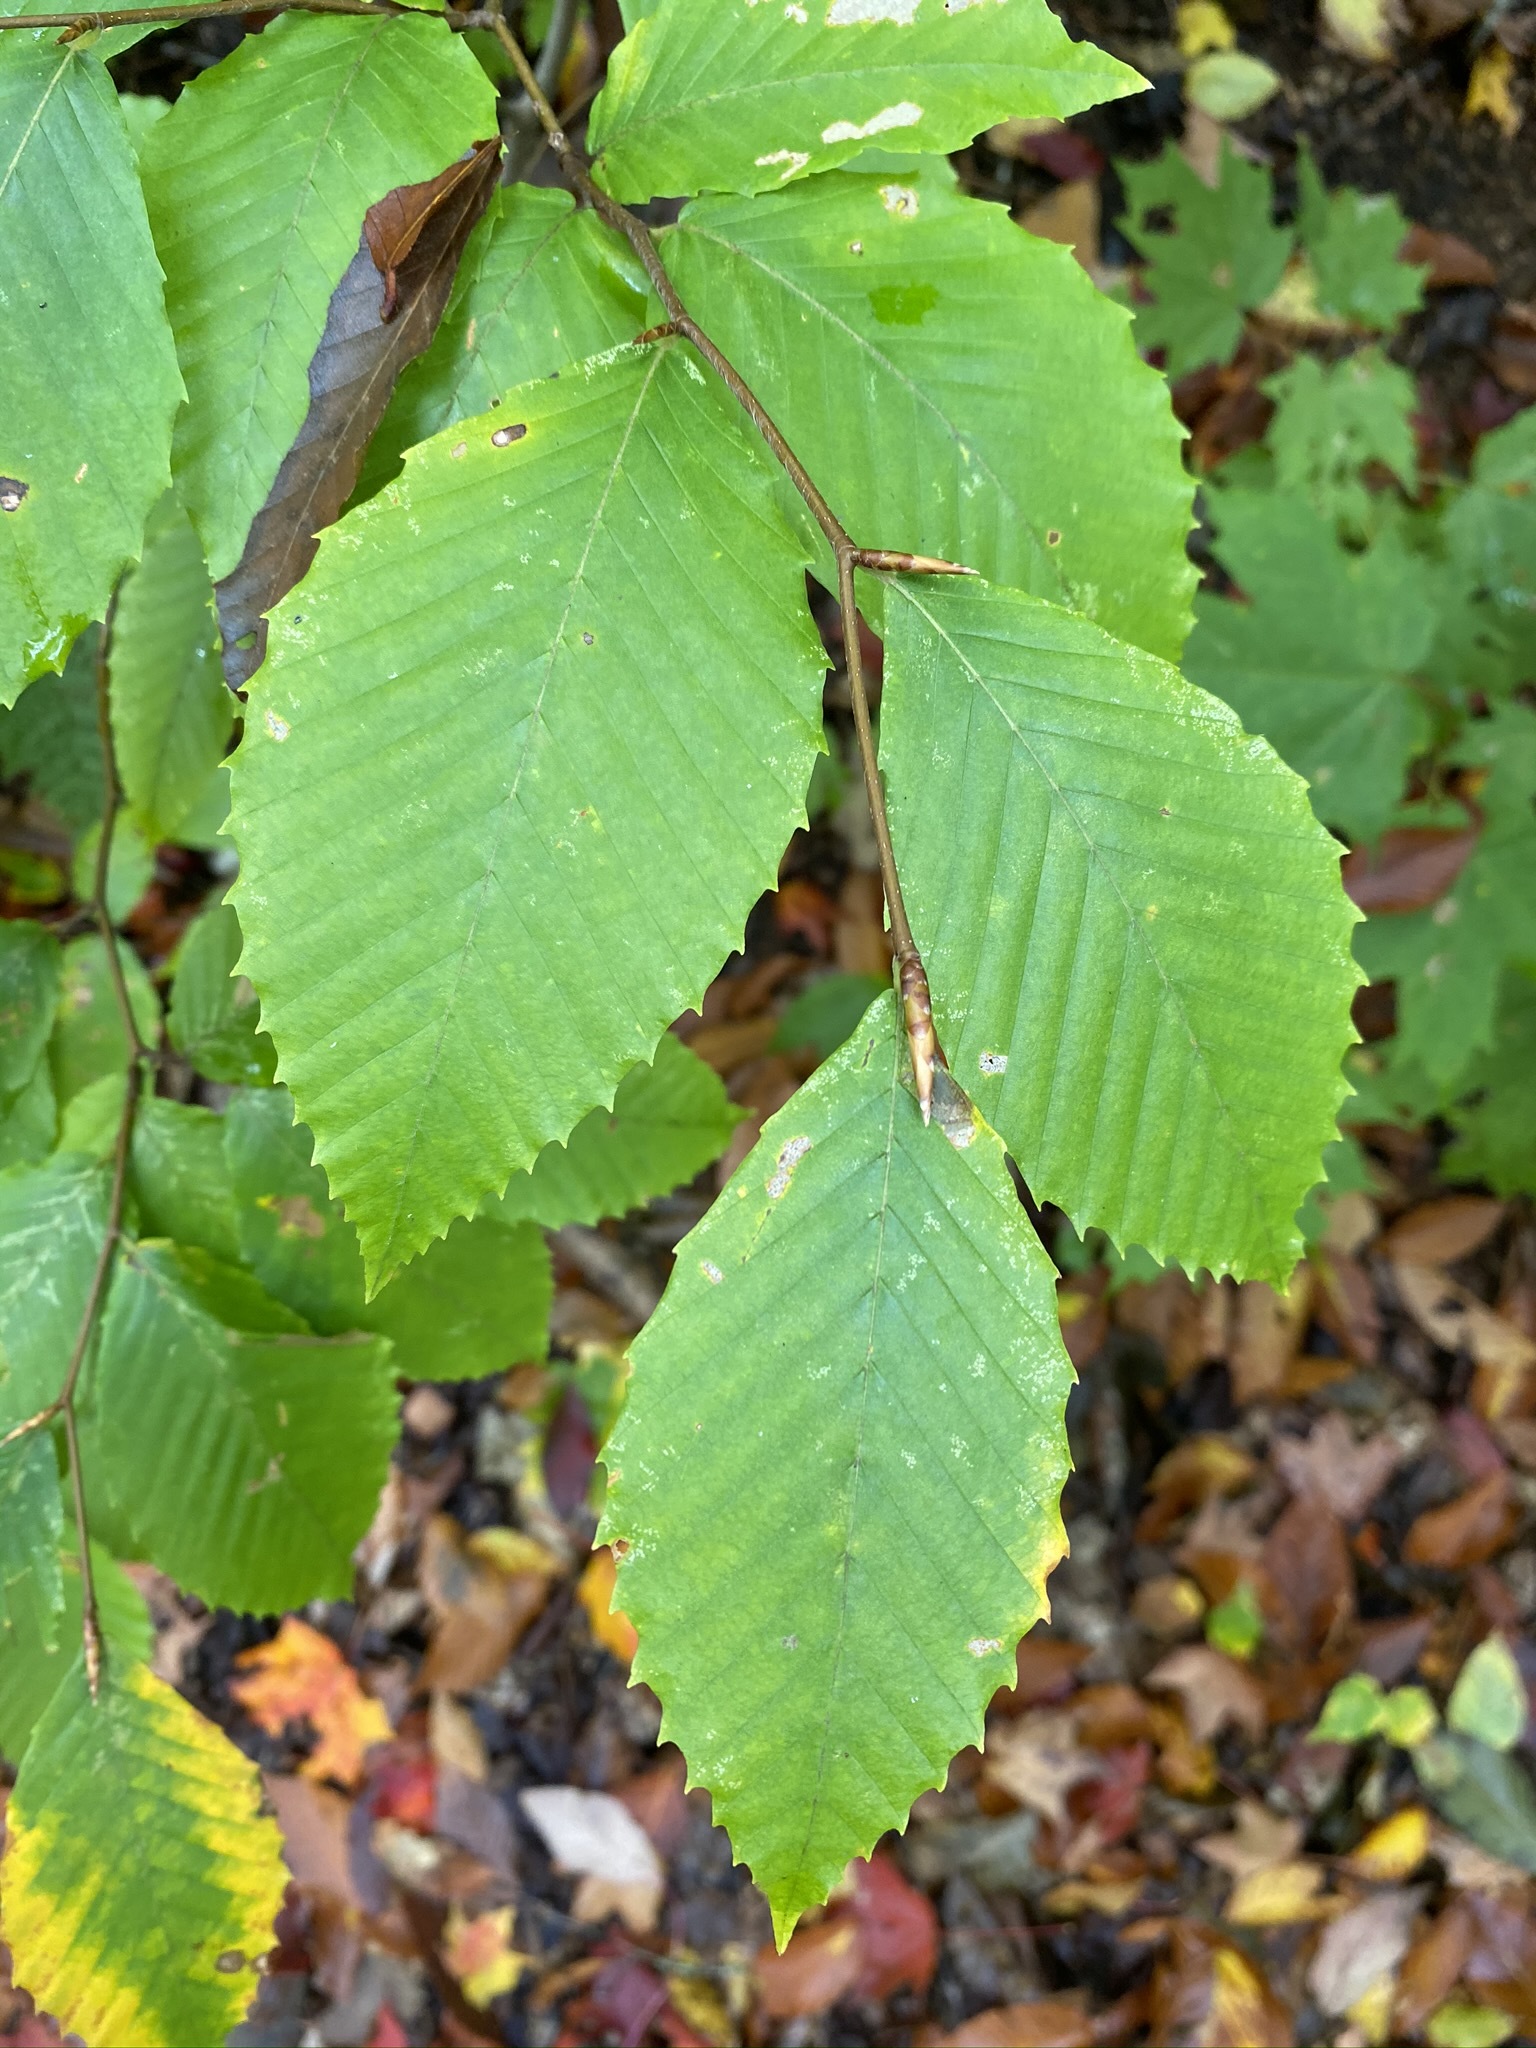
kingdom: Plantae
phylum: Tracheophyta
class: Magnoliopsida
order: Fagales
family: Fagaceae
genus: Fagus
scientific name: Fagus grandifolia
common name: American beech
